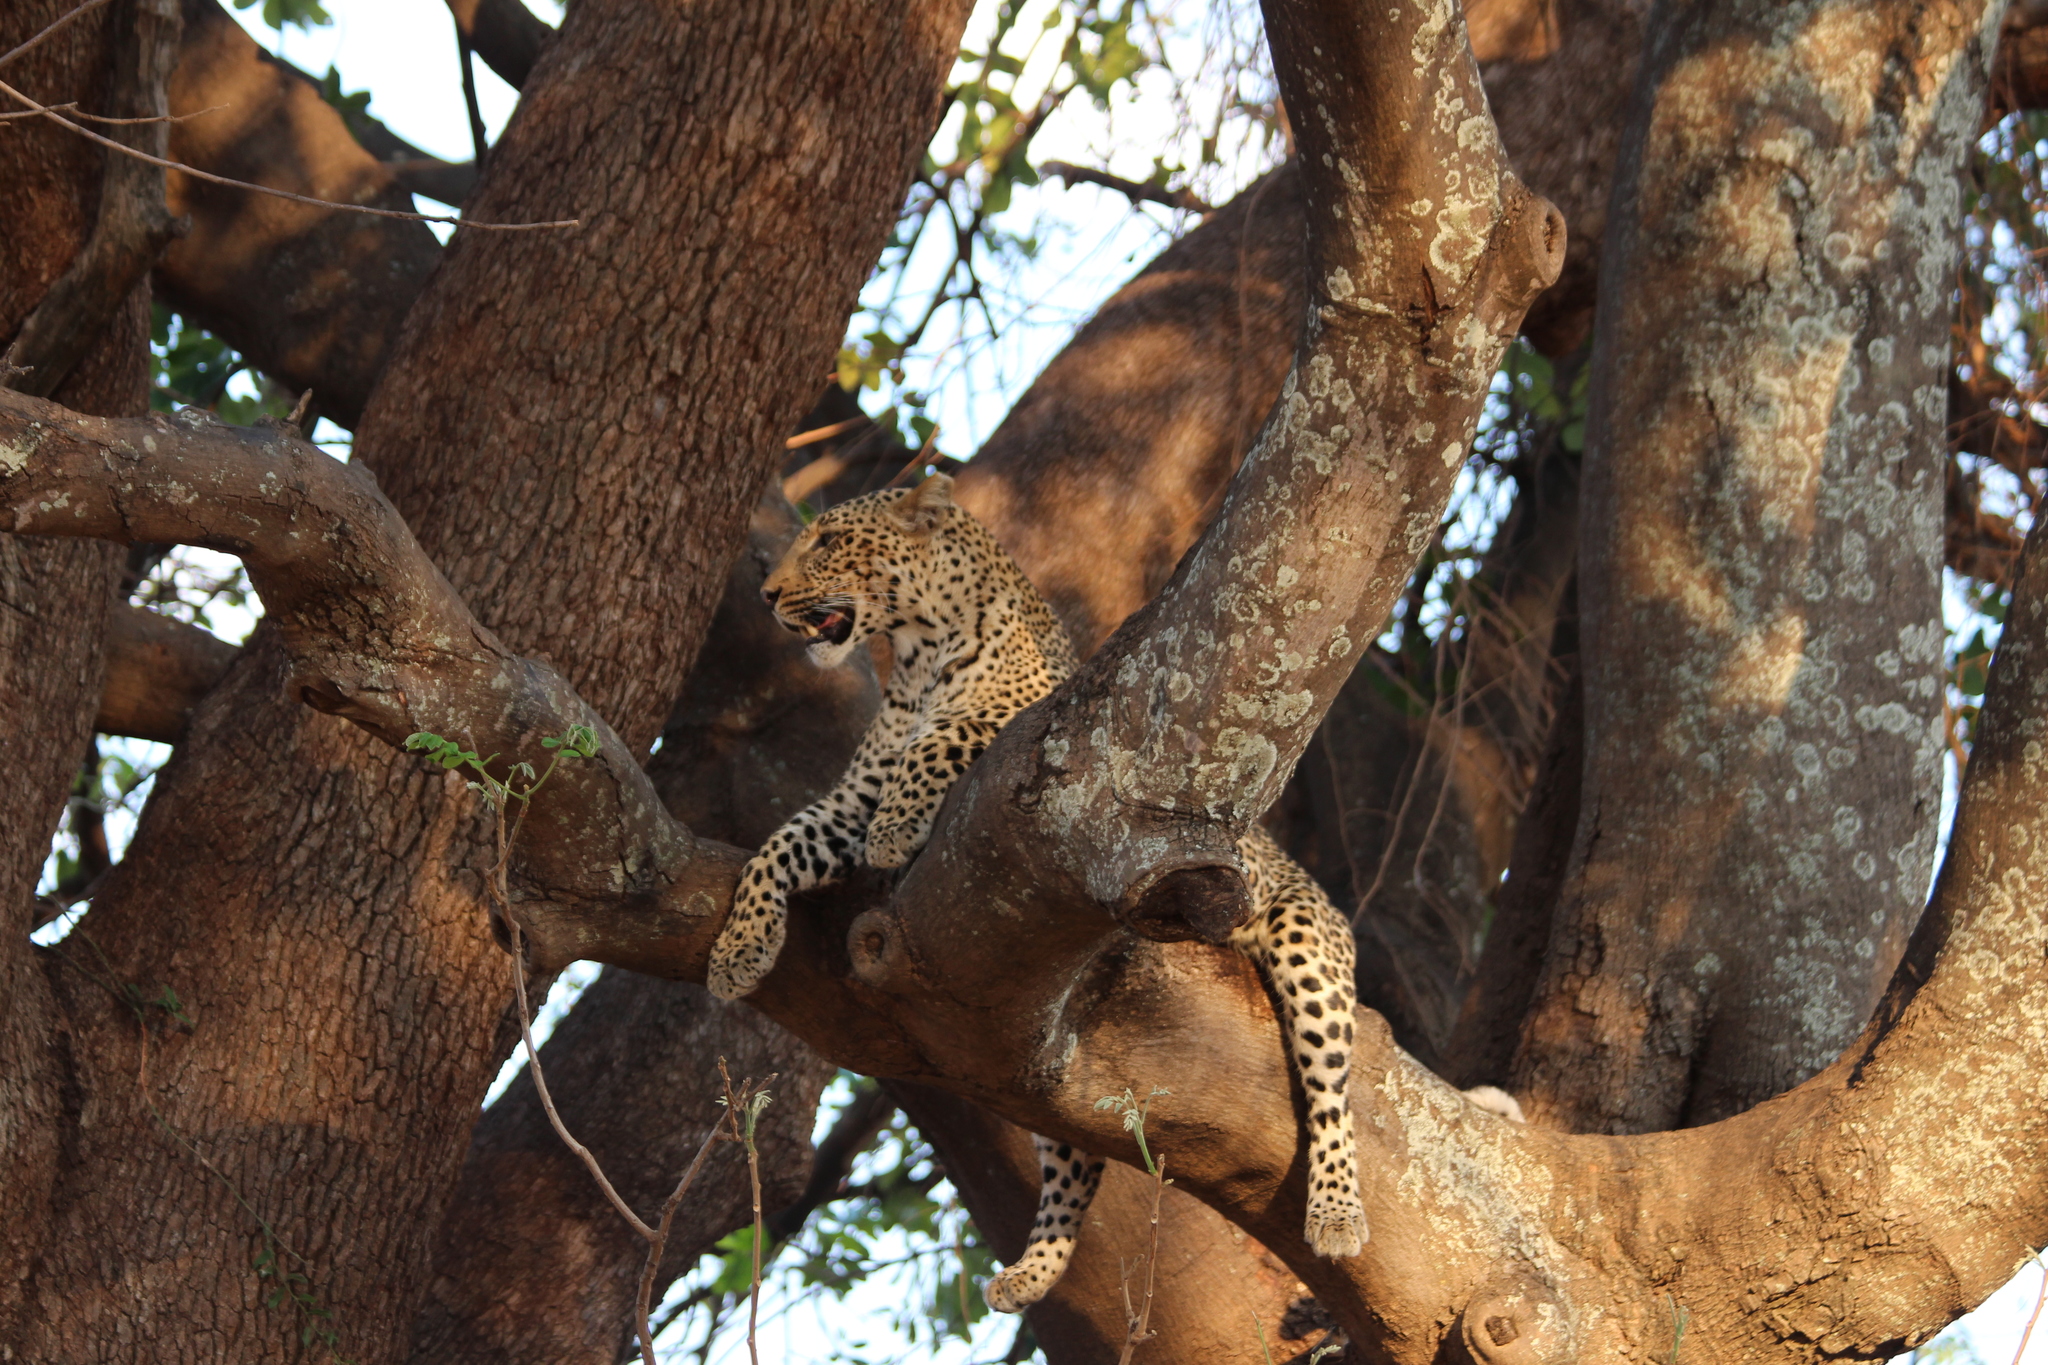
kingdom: Animalia
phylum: Chordata
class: Mammalia
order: Carnivora
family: Felidae
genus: Panthera
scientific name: Panthera pardus
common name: Leopard
